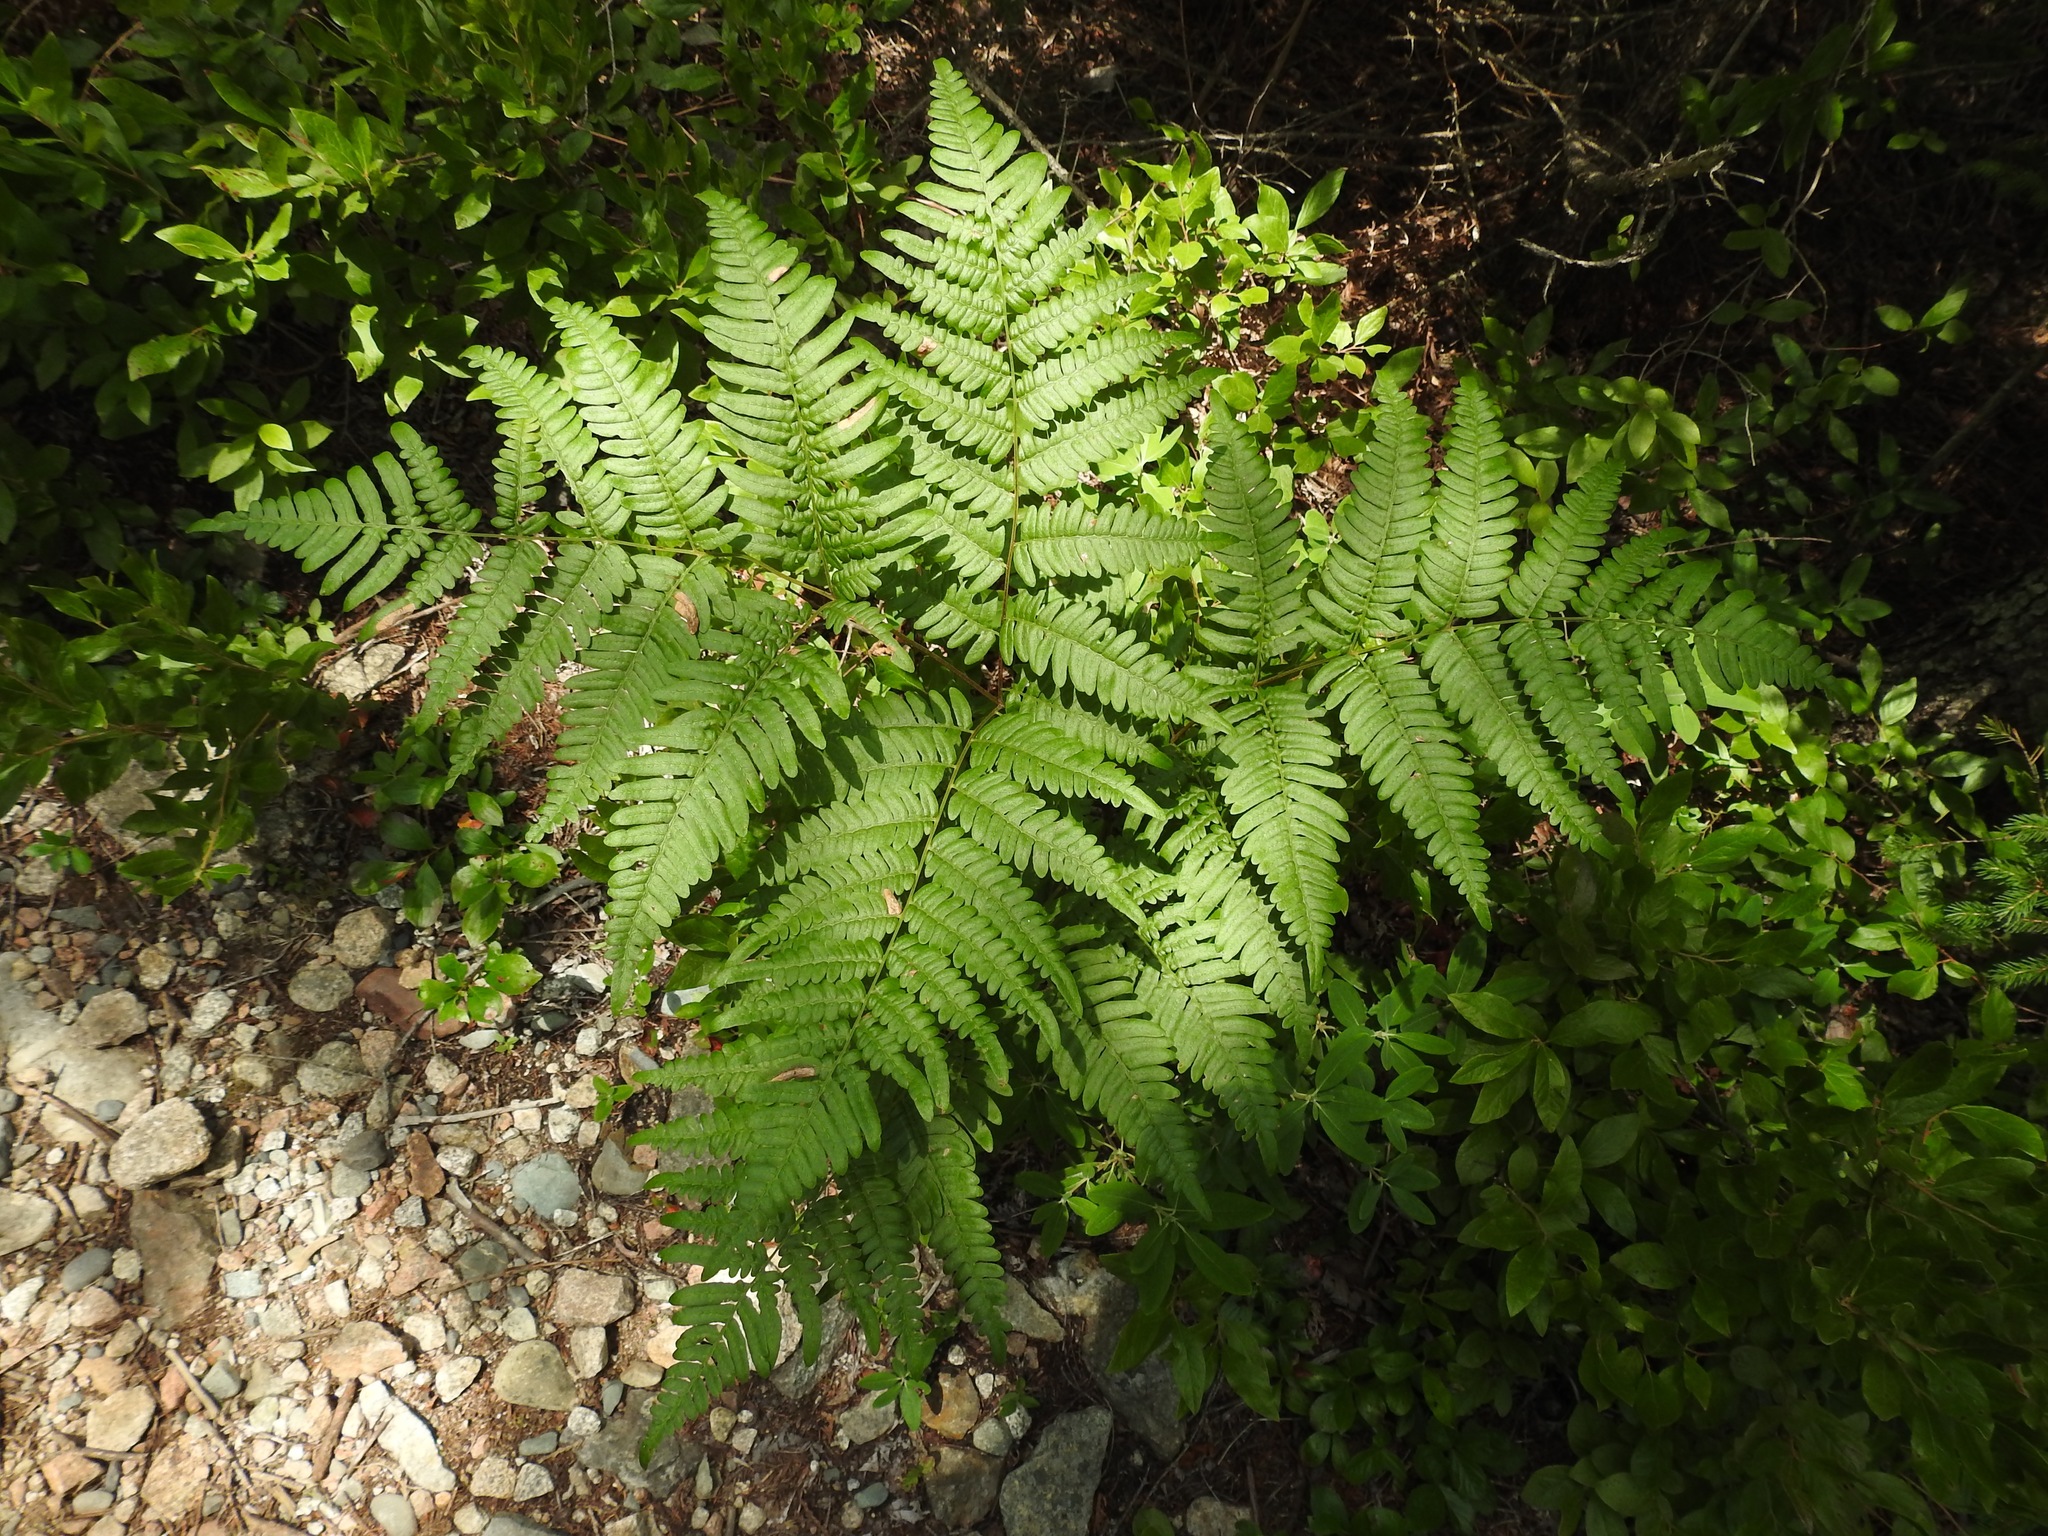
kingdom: Plantae
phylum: Tracheophyta
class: Polypodiopsida
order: Polypodiales
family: Dennstaedtiaceae
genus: Pteridium
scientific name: Pteridium aquilinum
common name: Bracken
